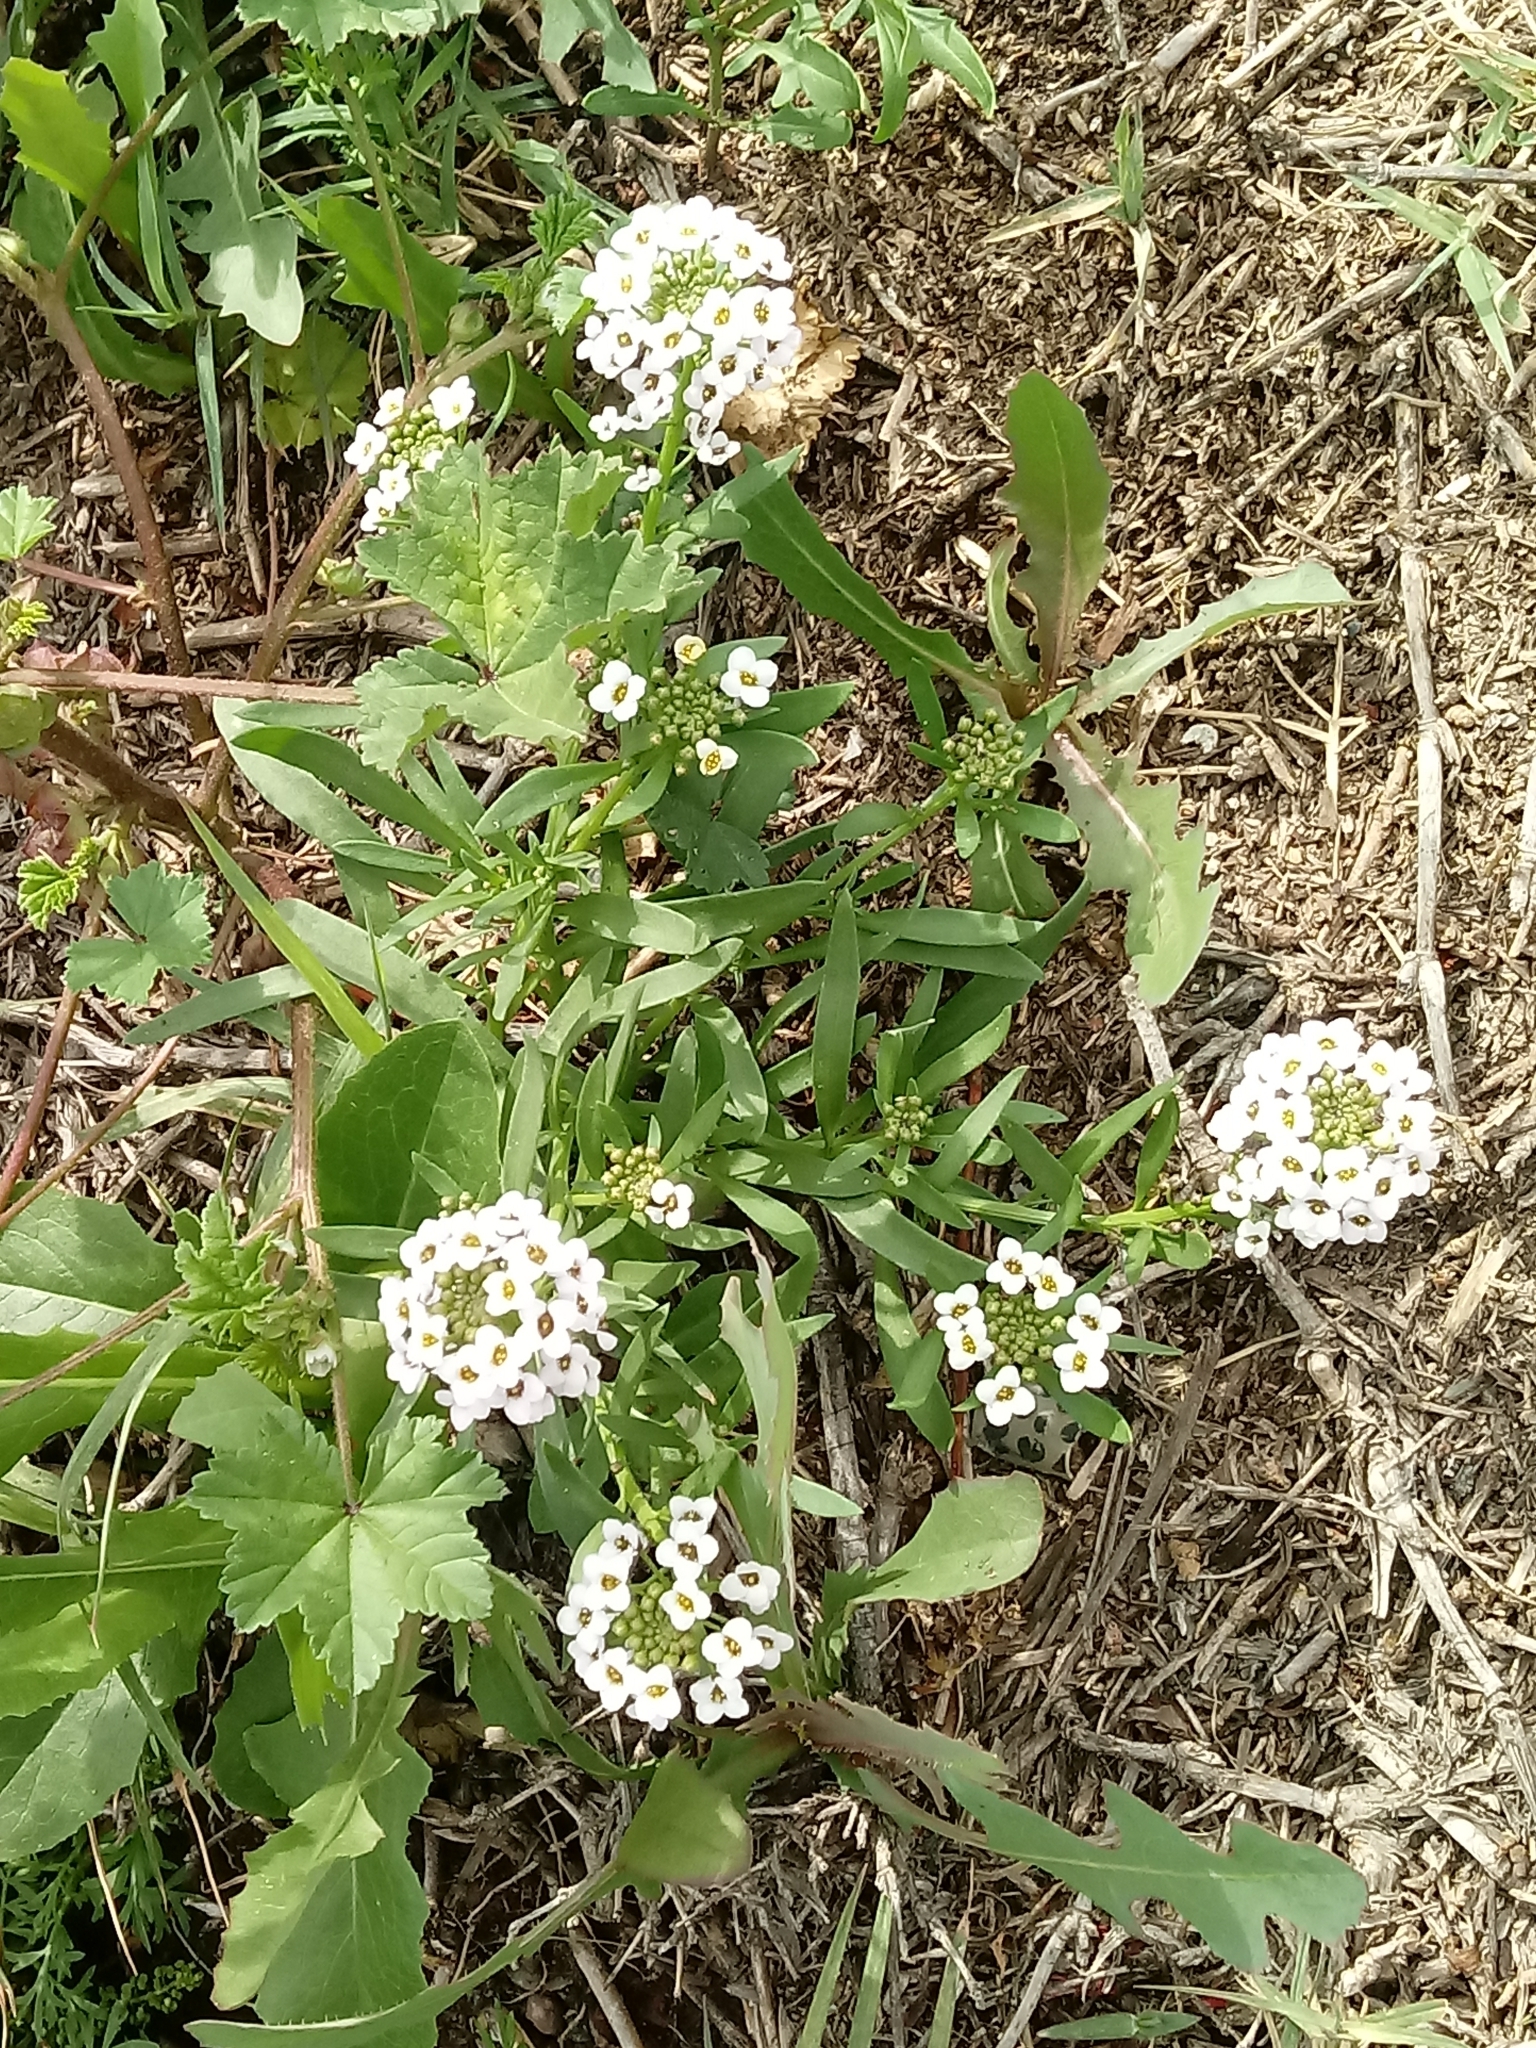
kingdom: Plantae
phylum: Tracheophyta
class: Magnoliopsida
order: Brassicales
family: Brassicaceae
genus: Lobularia
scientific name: Lobularia maritima
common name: Sweet alison
